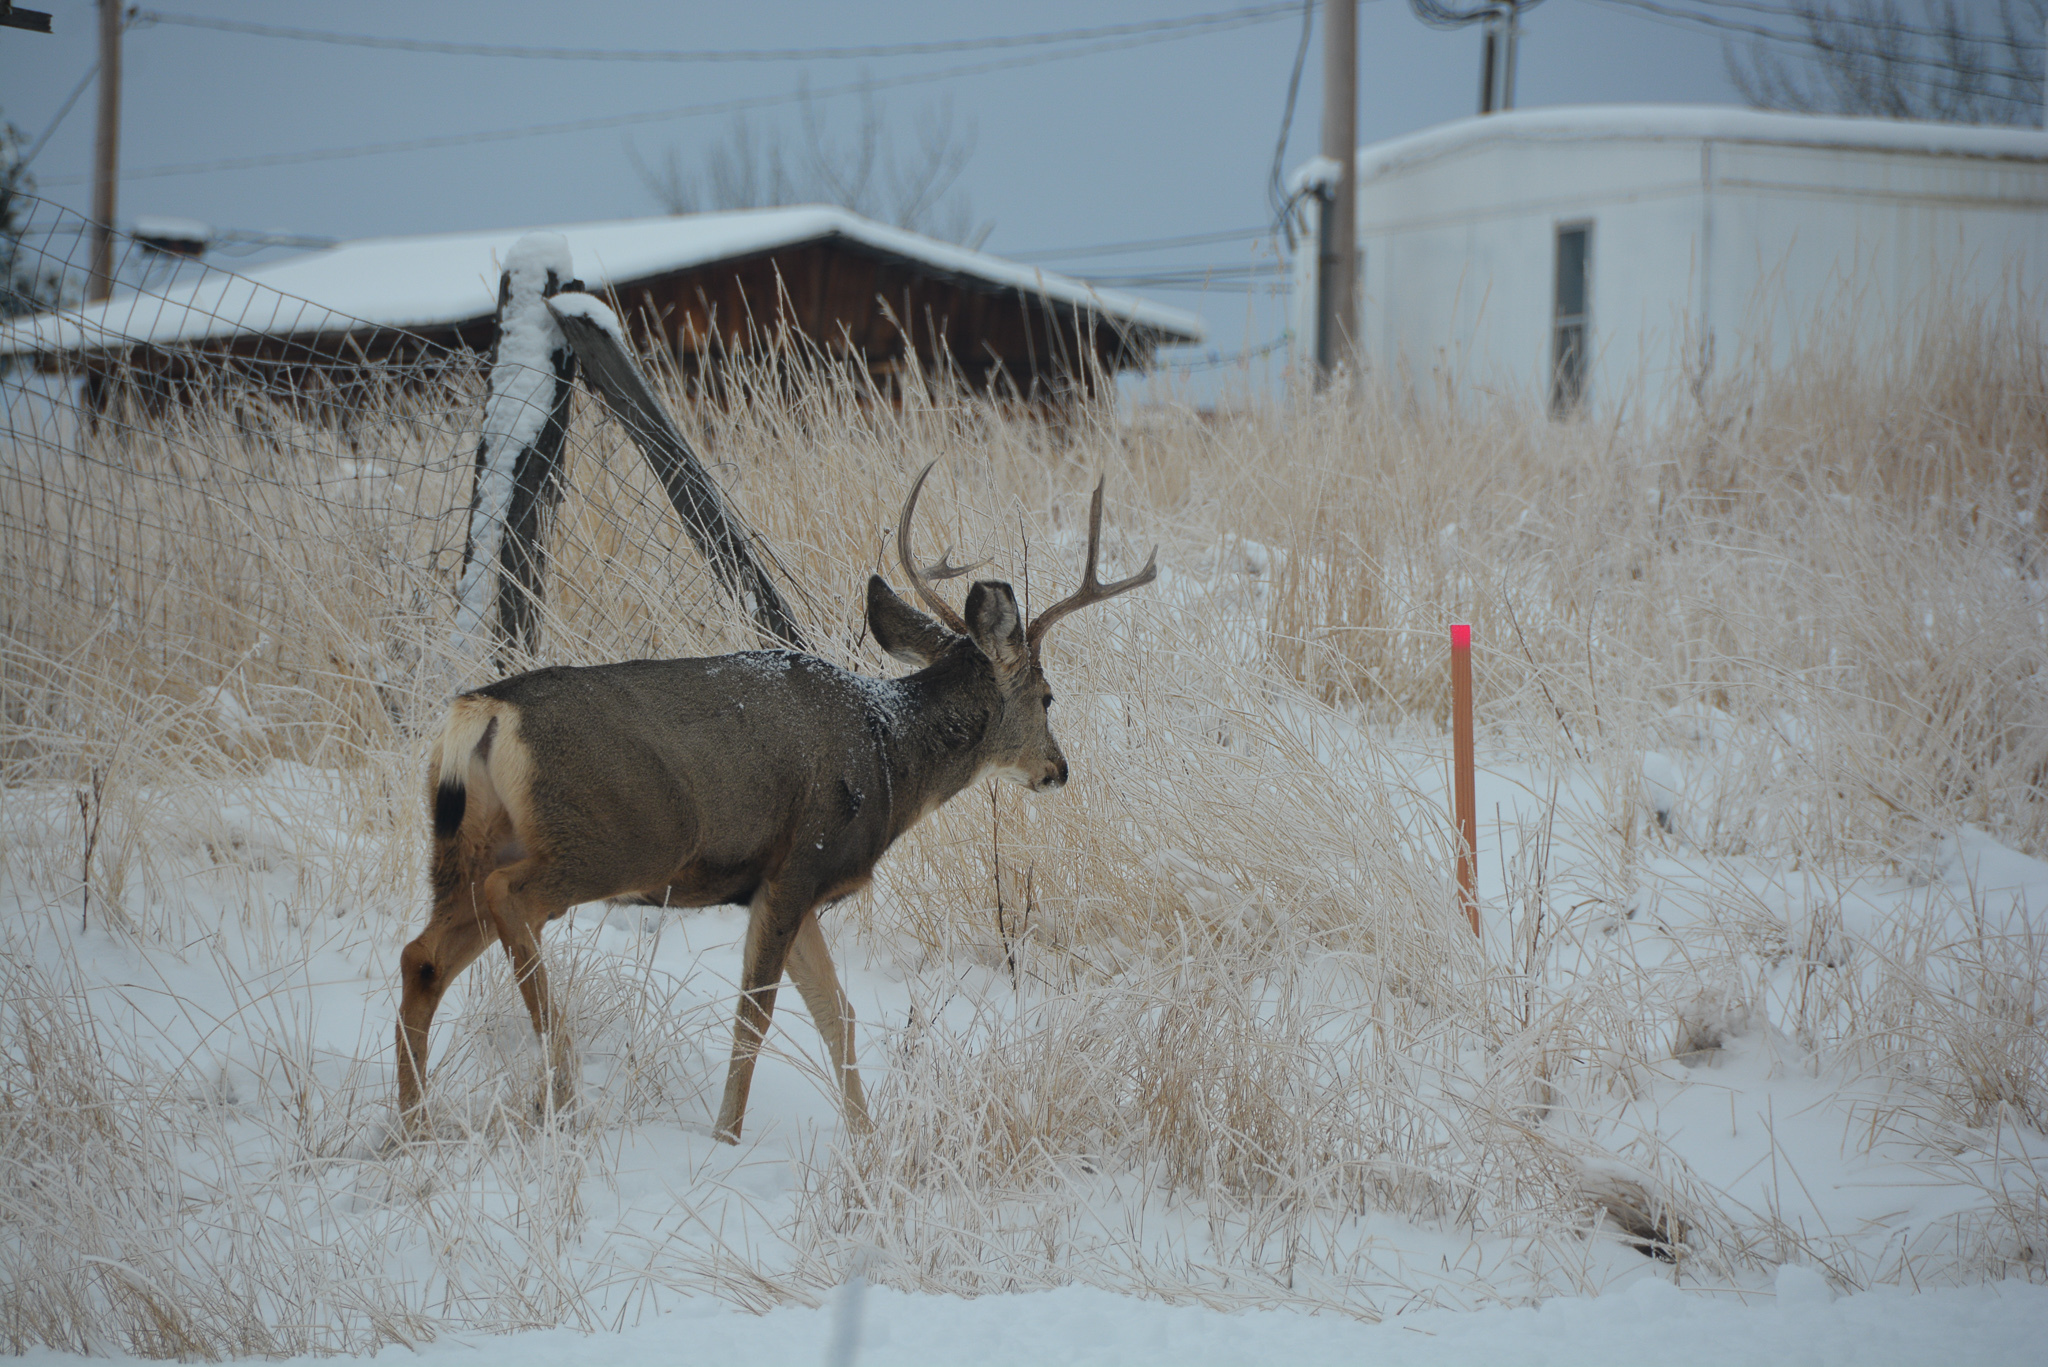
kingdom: Animalia
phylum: Chordata
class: Mammalia
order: Artiodactyla
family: Cervidae
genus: Odocoileus
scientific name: Odocoileus hemionus
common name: Mule deer
